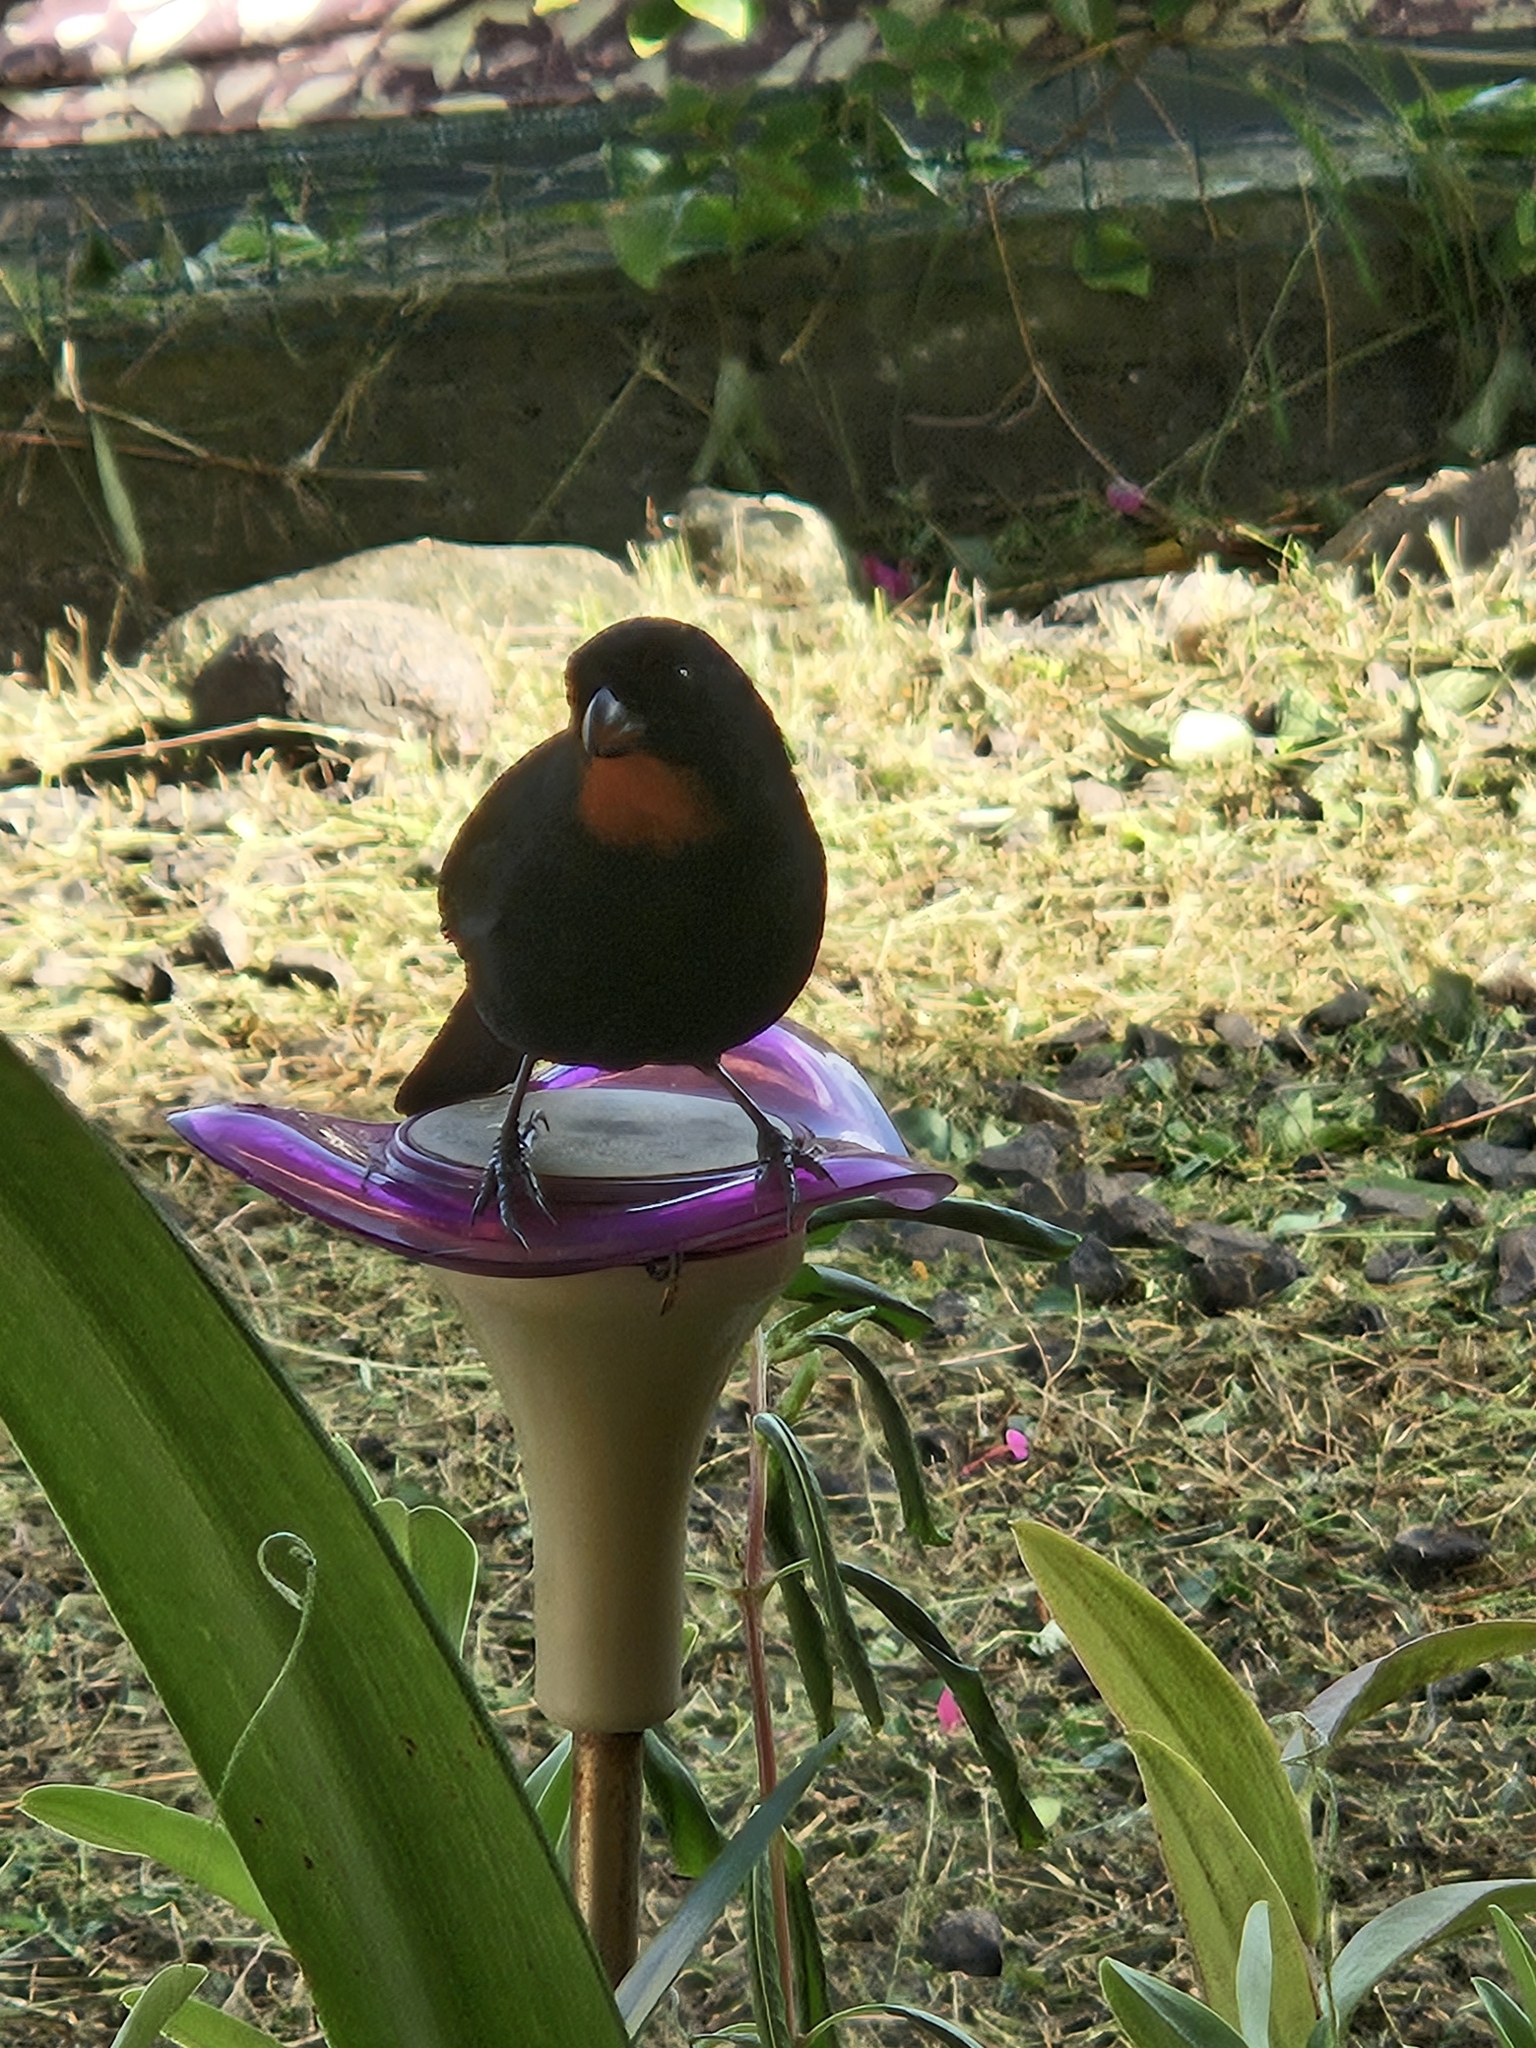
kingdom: Animalia
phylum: Chordata
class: Aves
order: Passeriformes
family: Thraupidae
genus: Loxigilla
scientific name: Loxigilla noctis
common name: Lesser antillean bullfinch
